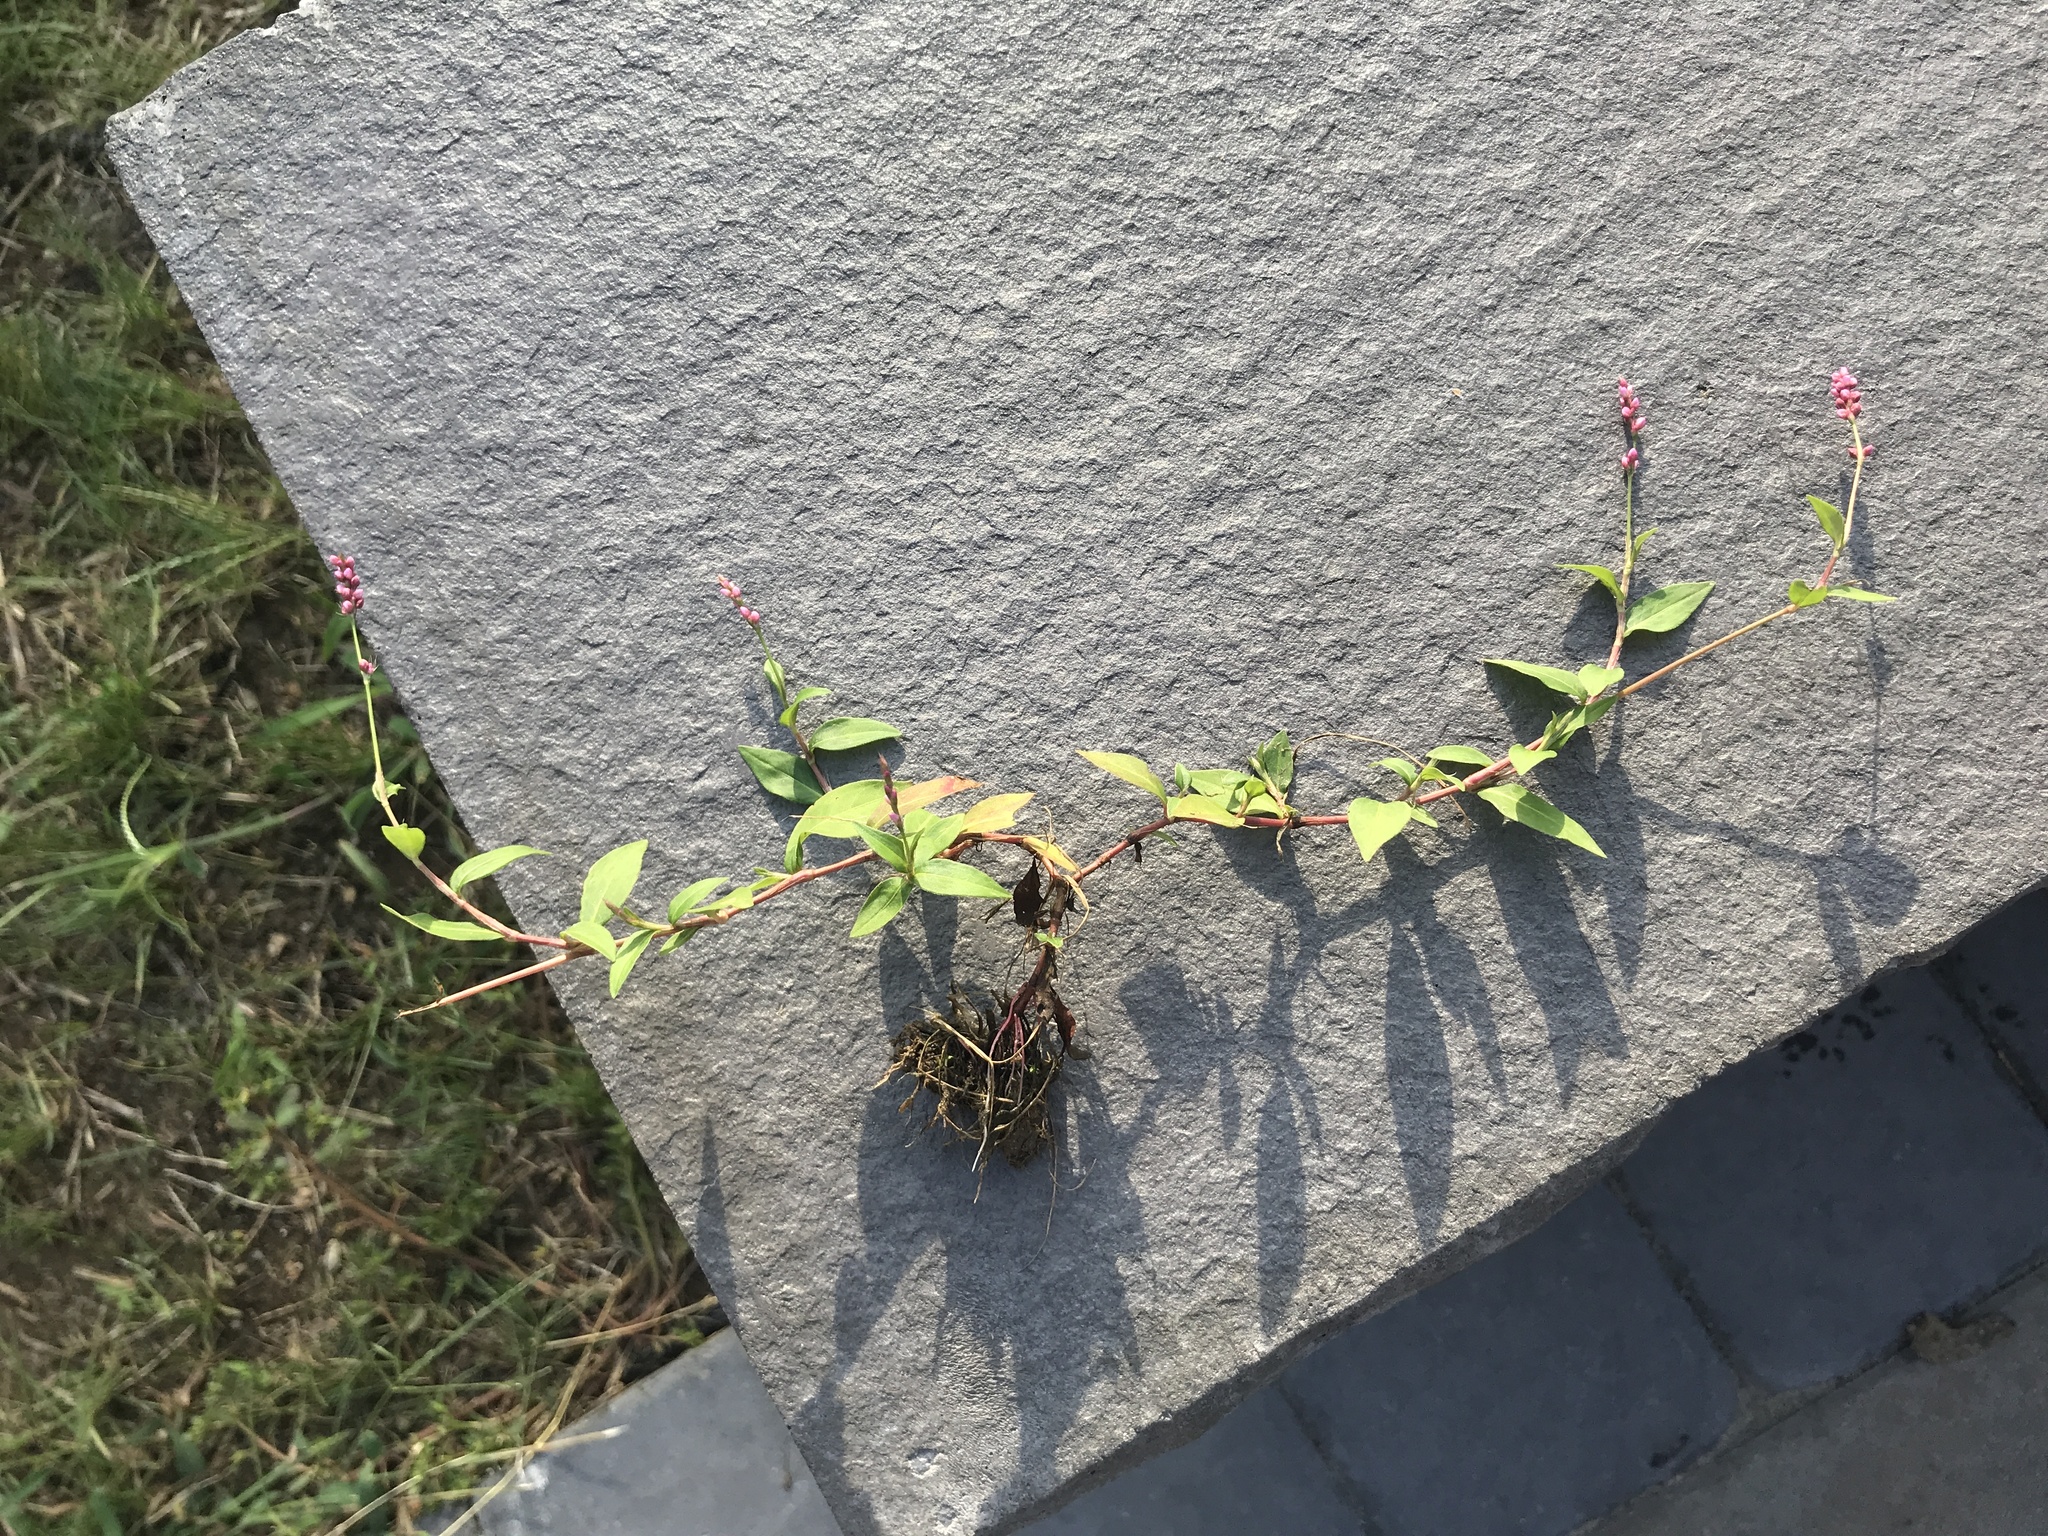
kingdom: Plantae
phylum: Tracheophyta
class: Magnoliopsida
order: Caryophyllales
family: Polygonaceae
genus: Persicaria
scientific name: Persicaria longiseta
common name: Bristly lady's-thumb
